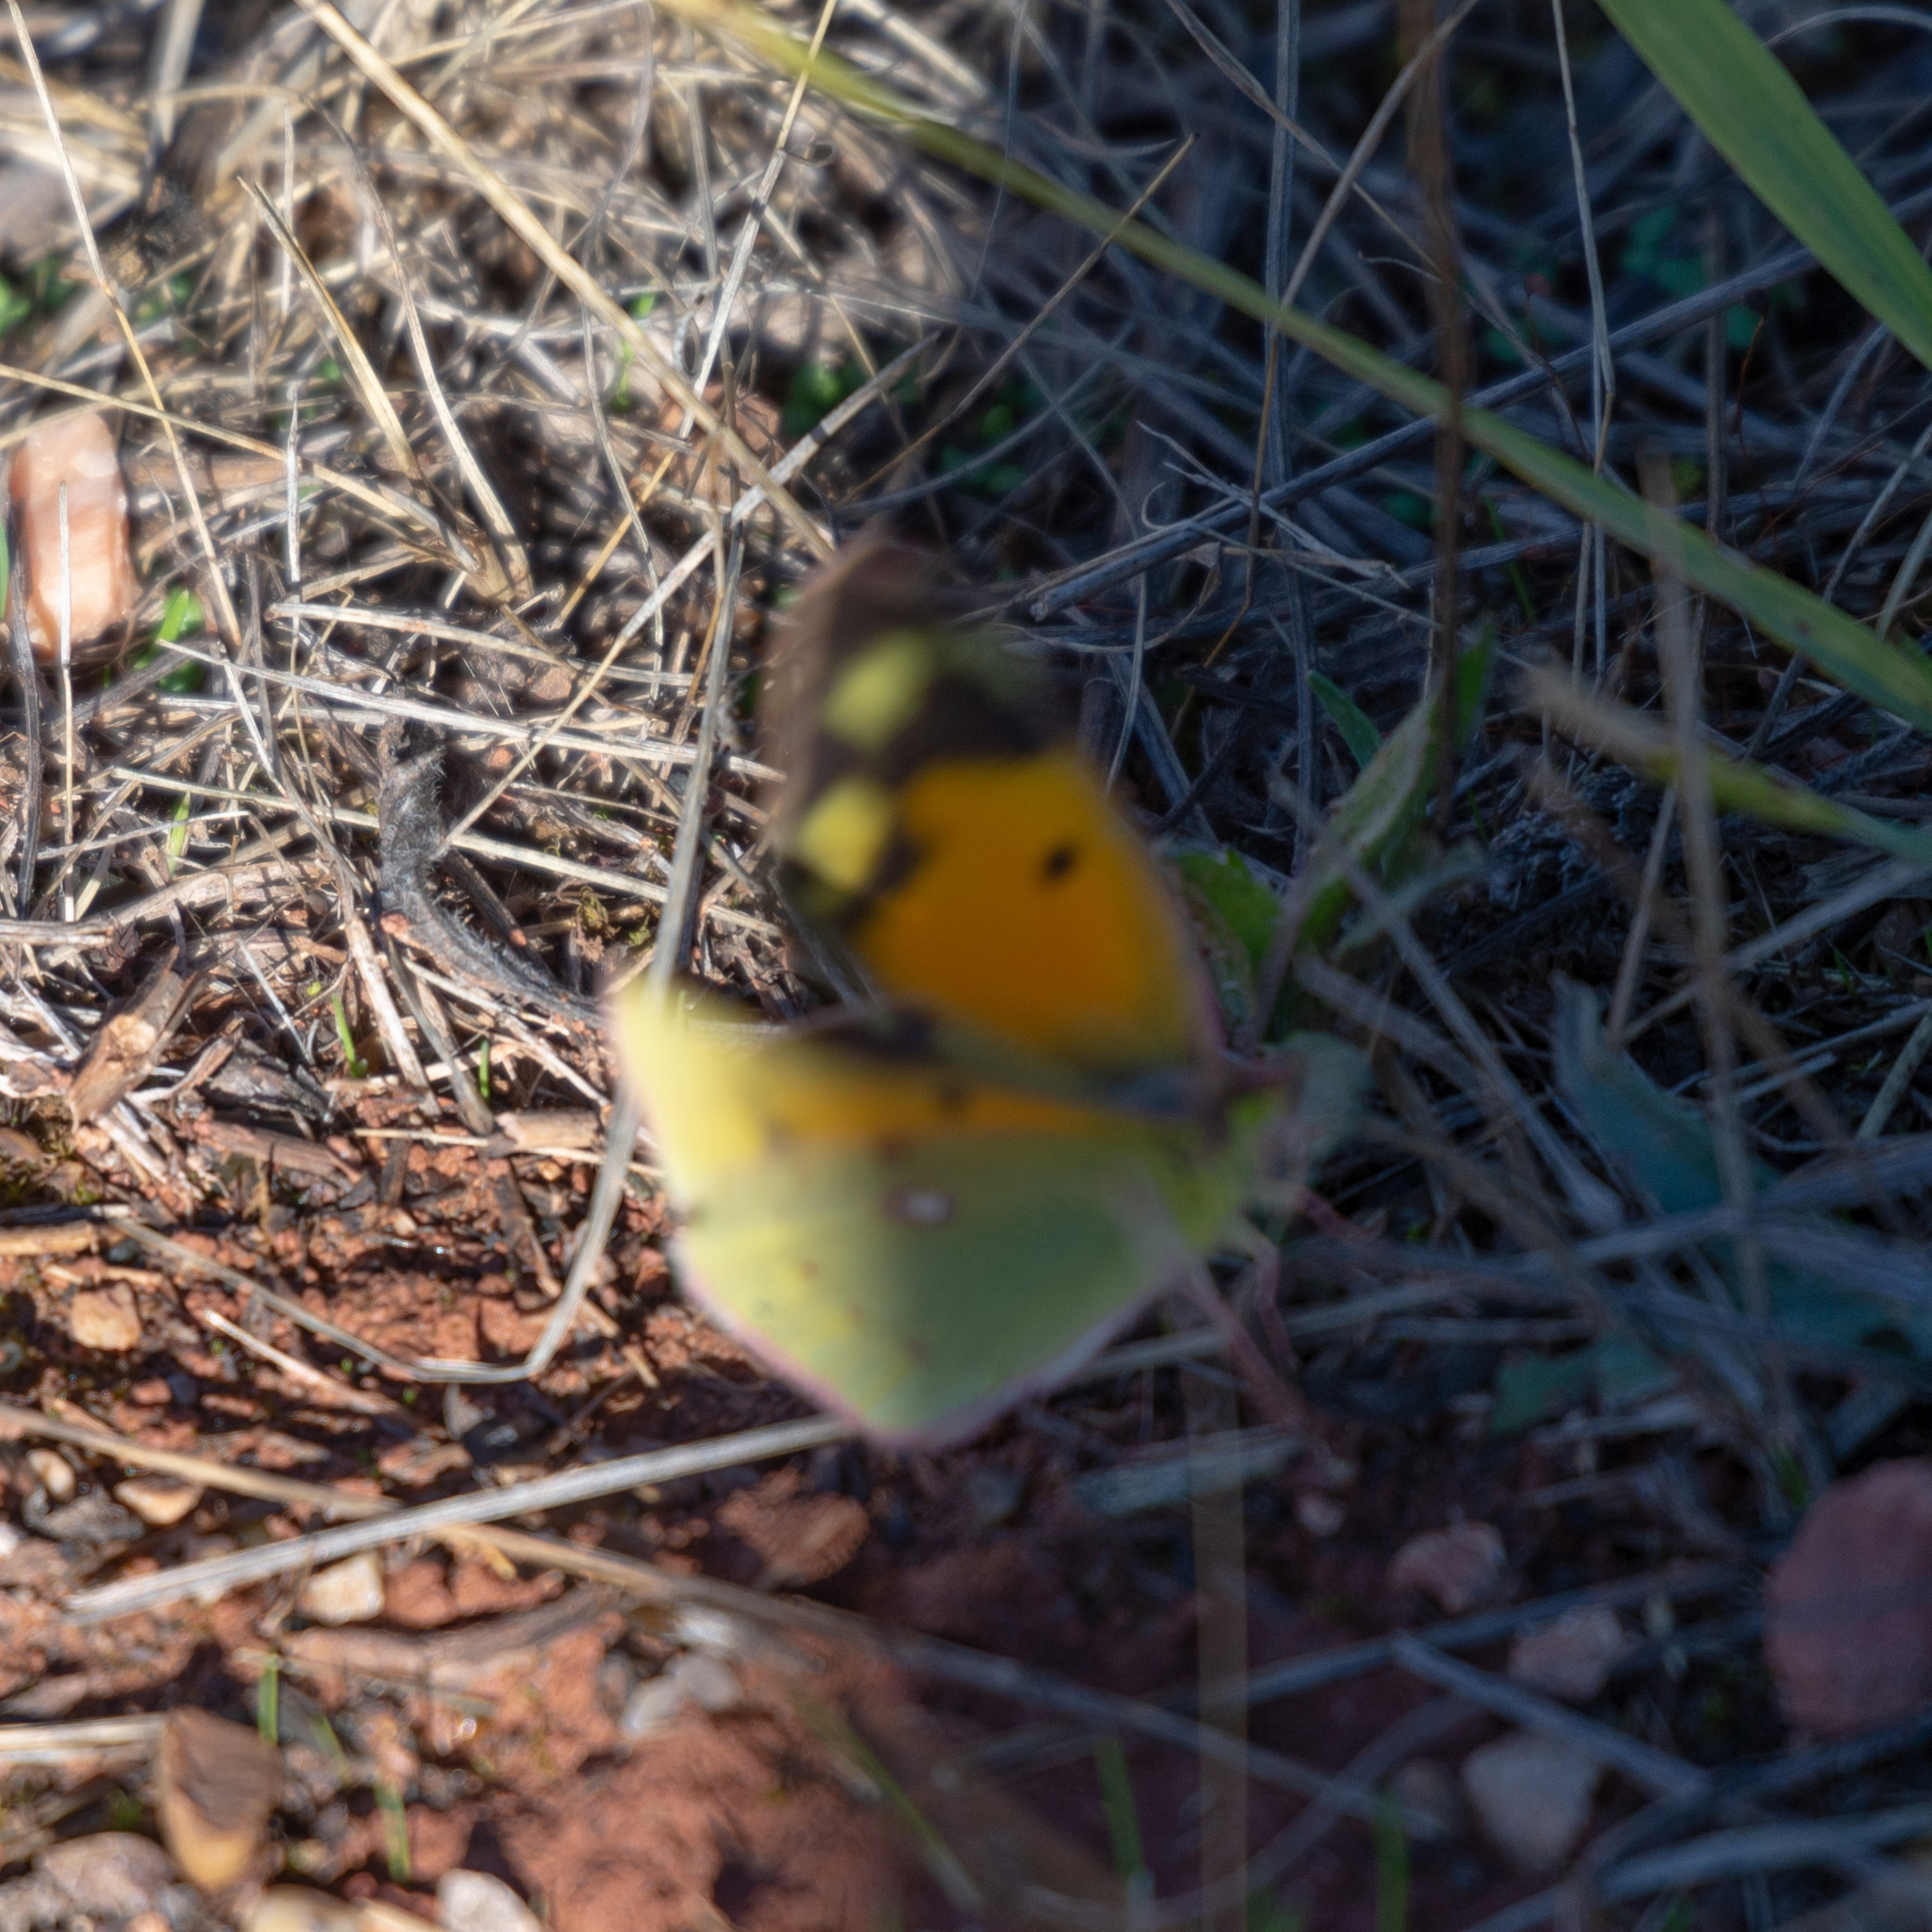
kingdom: Animalia
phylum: Arthropoda
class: Insecta
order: Lepidoptera
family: Pieridae
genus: Colias
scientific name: Colias croceus
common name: Clouded yellow
